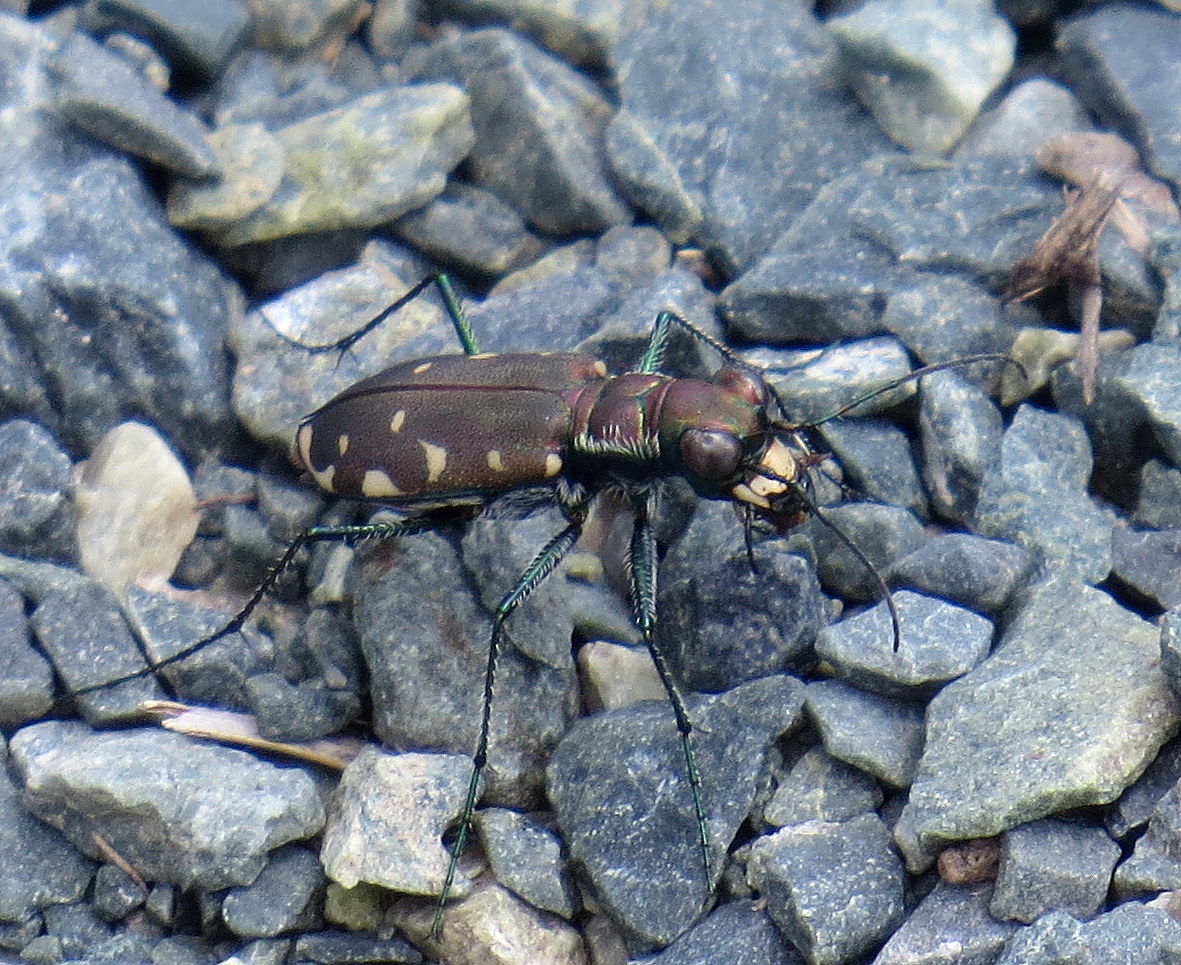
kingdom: Animalia
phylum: Arthropoda
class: Insecta
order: Coleoptera
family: Carabidae
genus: Cicindela
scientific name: Cicindela rufiventris
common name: Eastern red-bellied tiger beetle
